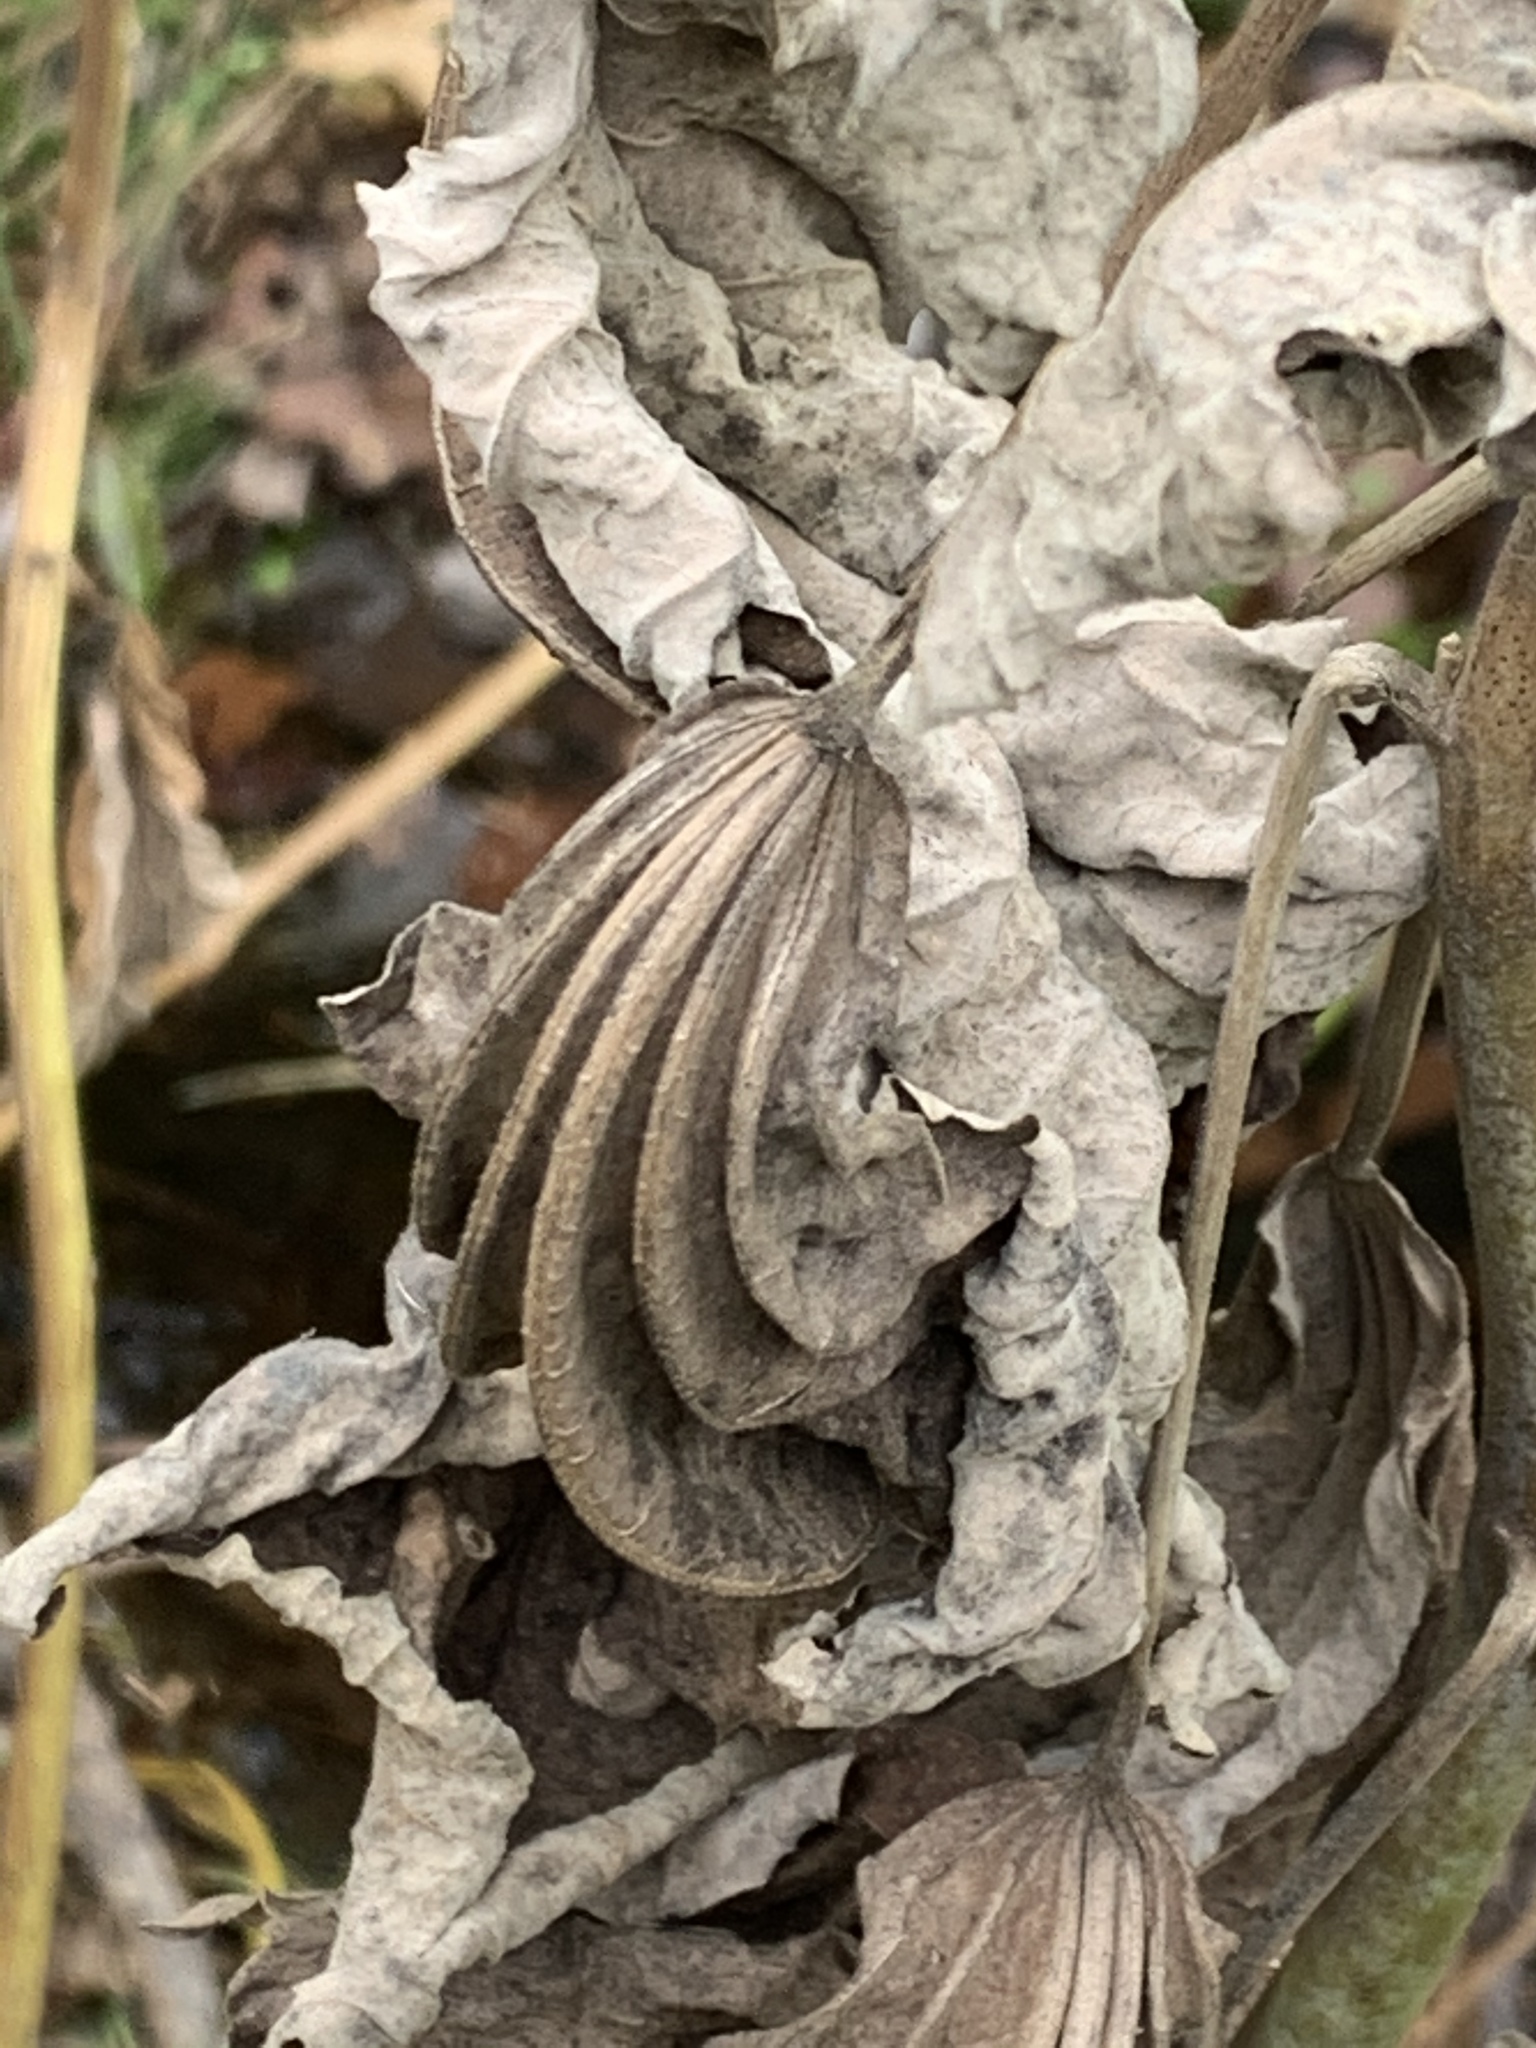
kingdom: Plantae
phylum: Tracheophyta
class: Magnoliopsida
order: Malvales
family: Malvaceae
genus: Hibiscus
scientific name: Hibiscus moscheutos
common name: Common rose-mallow
